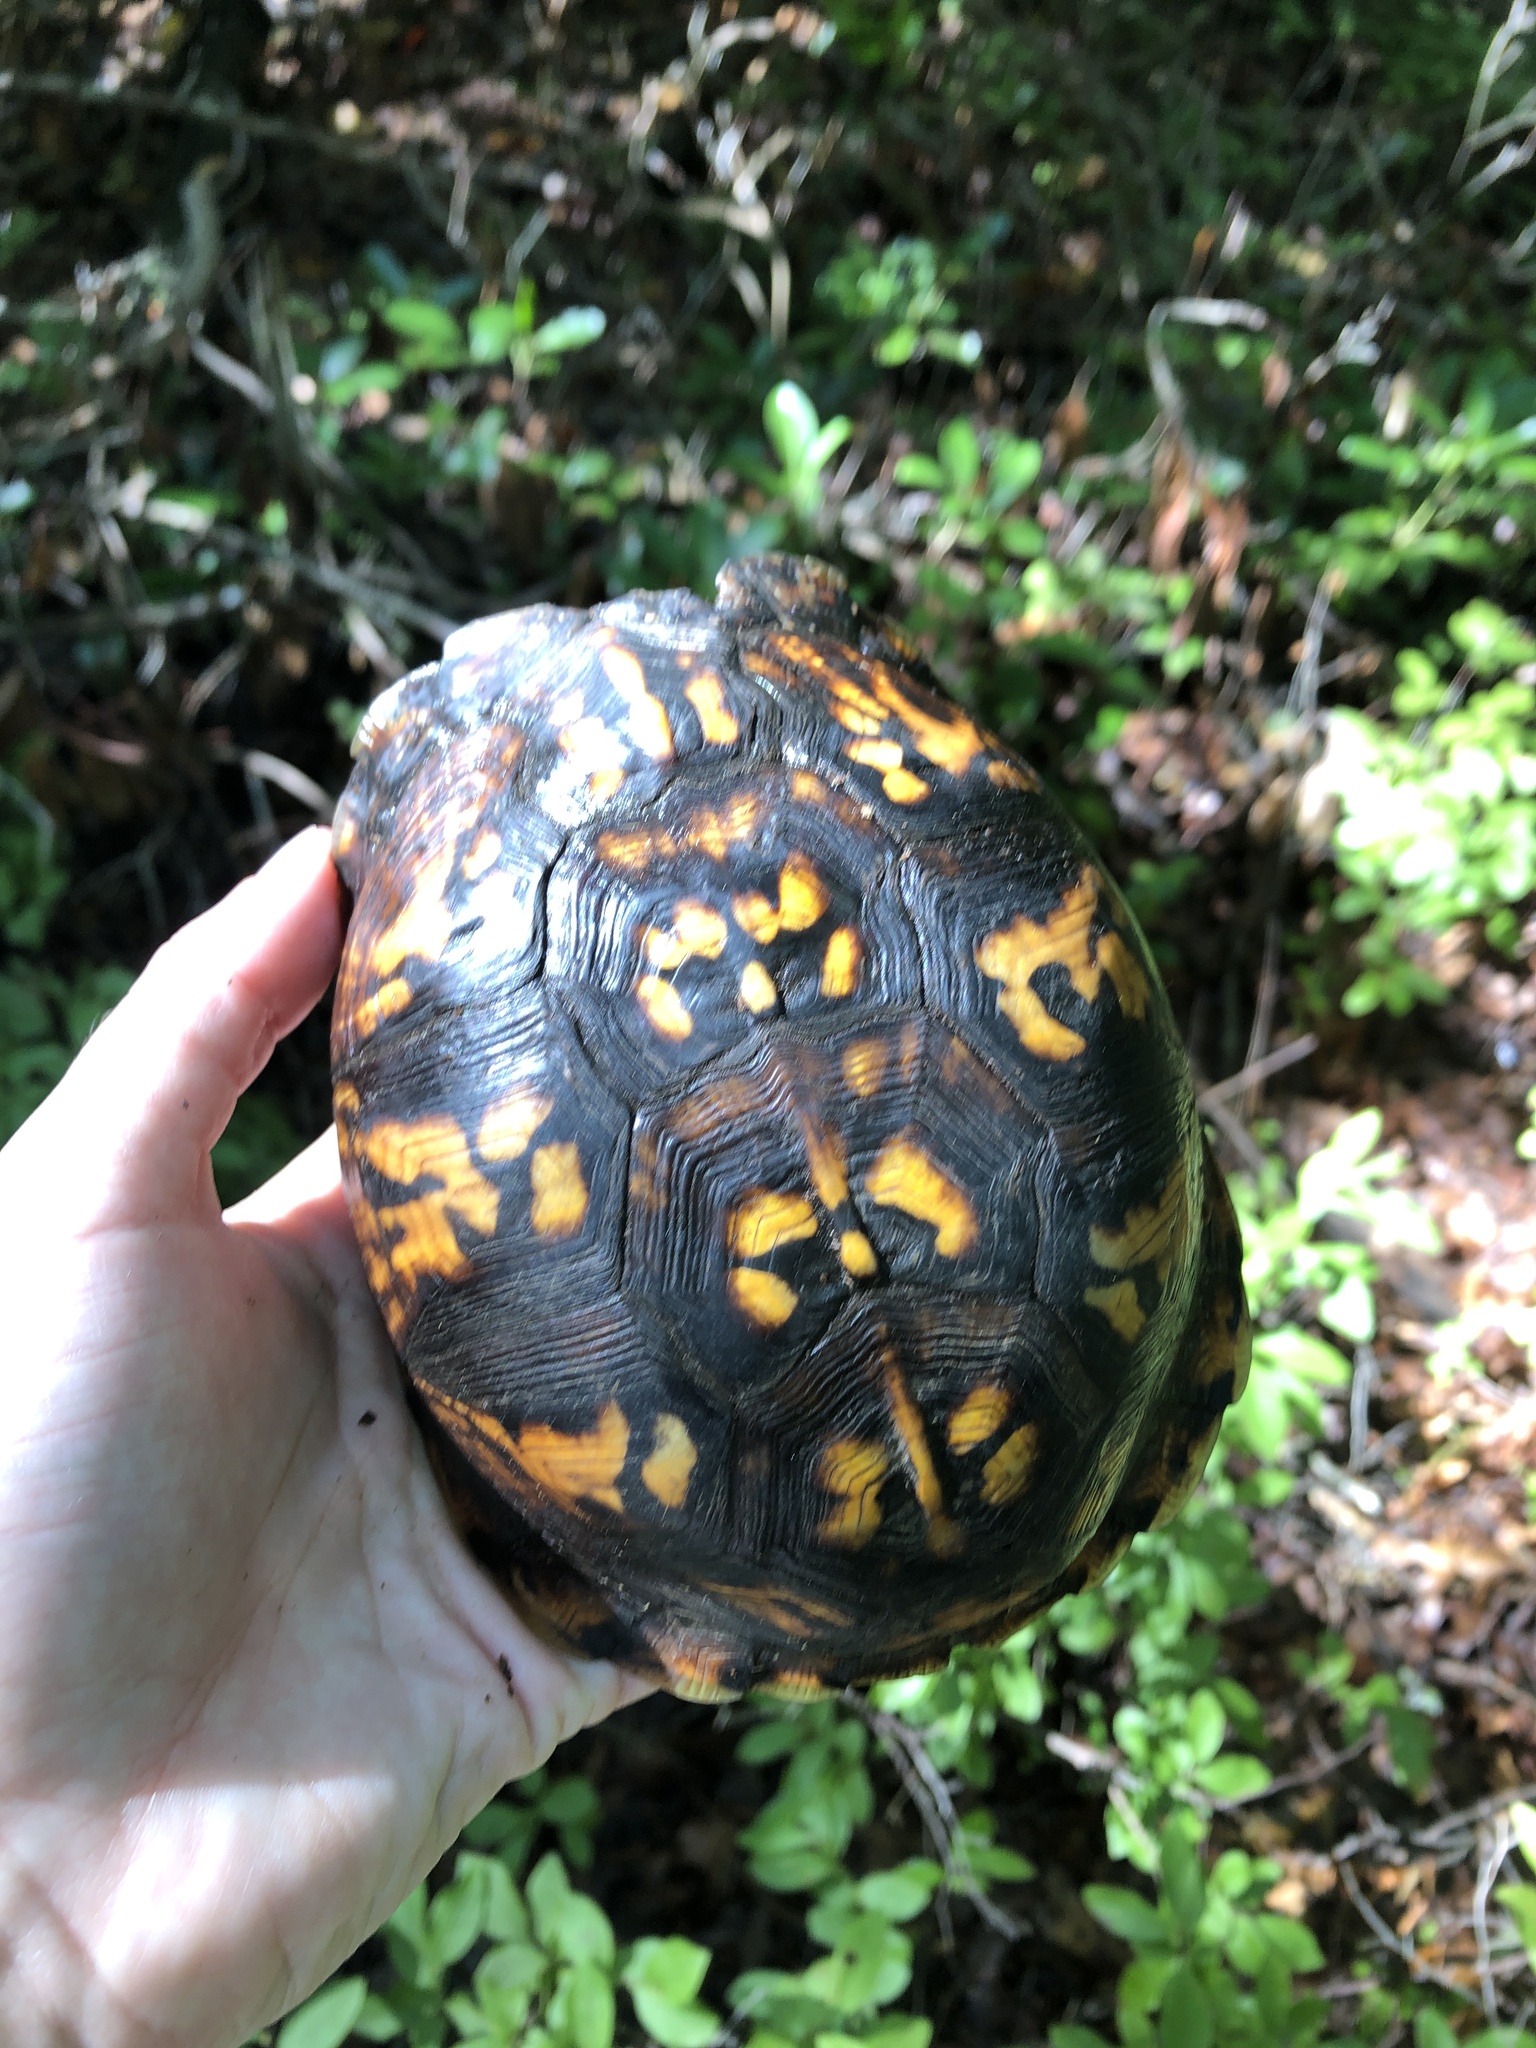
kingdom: Animalia
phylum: Chordata
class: Testudines
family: Emydidae
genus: Terrapene
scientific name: Terrapene carolina
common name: Common box turtle
